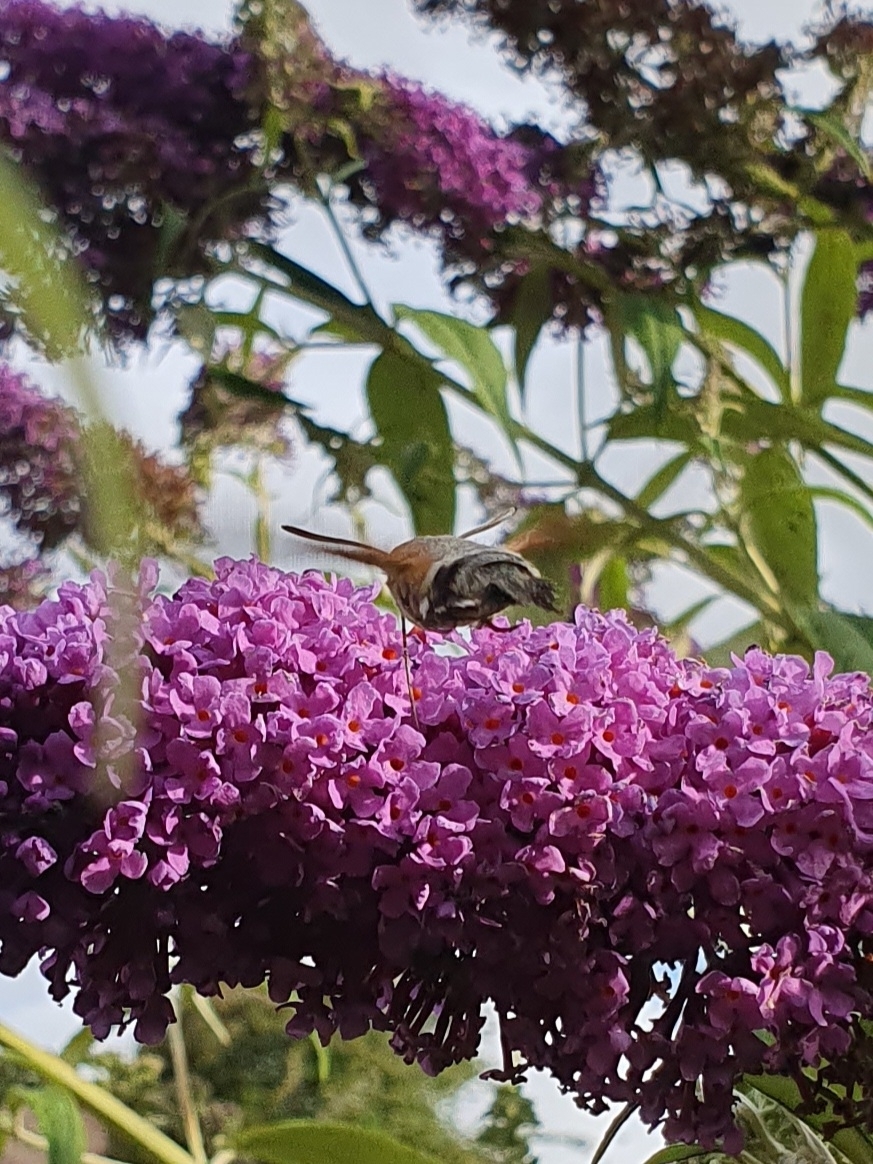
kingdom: Animalia
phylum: Arthropoda
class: Insecta
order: Lepidoptera
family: Sphingidae
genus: Macroglossum
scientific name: Macroglossum stellatarum
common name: Humming-bird hawk-moth
